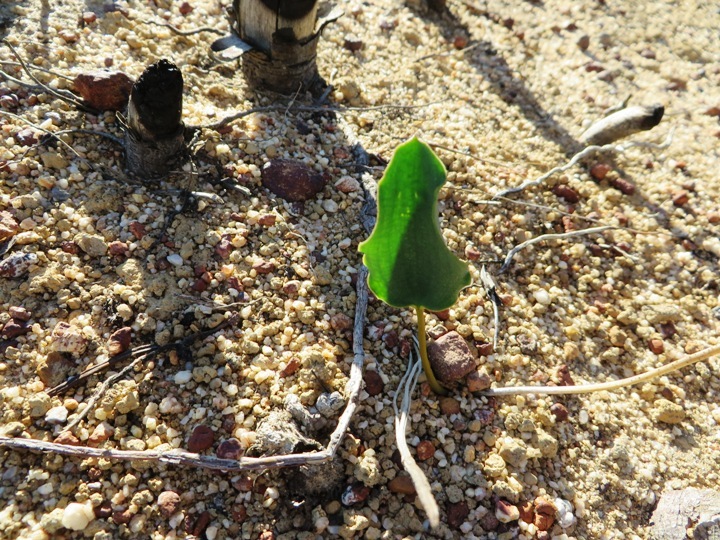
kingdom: Plantae
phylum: Tracheophyta
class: Liliopsida
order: Asparagales
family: Asparagaceae
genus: Eriospermum
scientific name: Eriospermum capense
